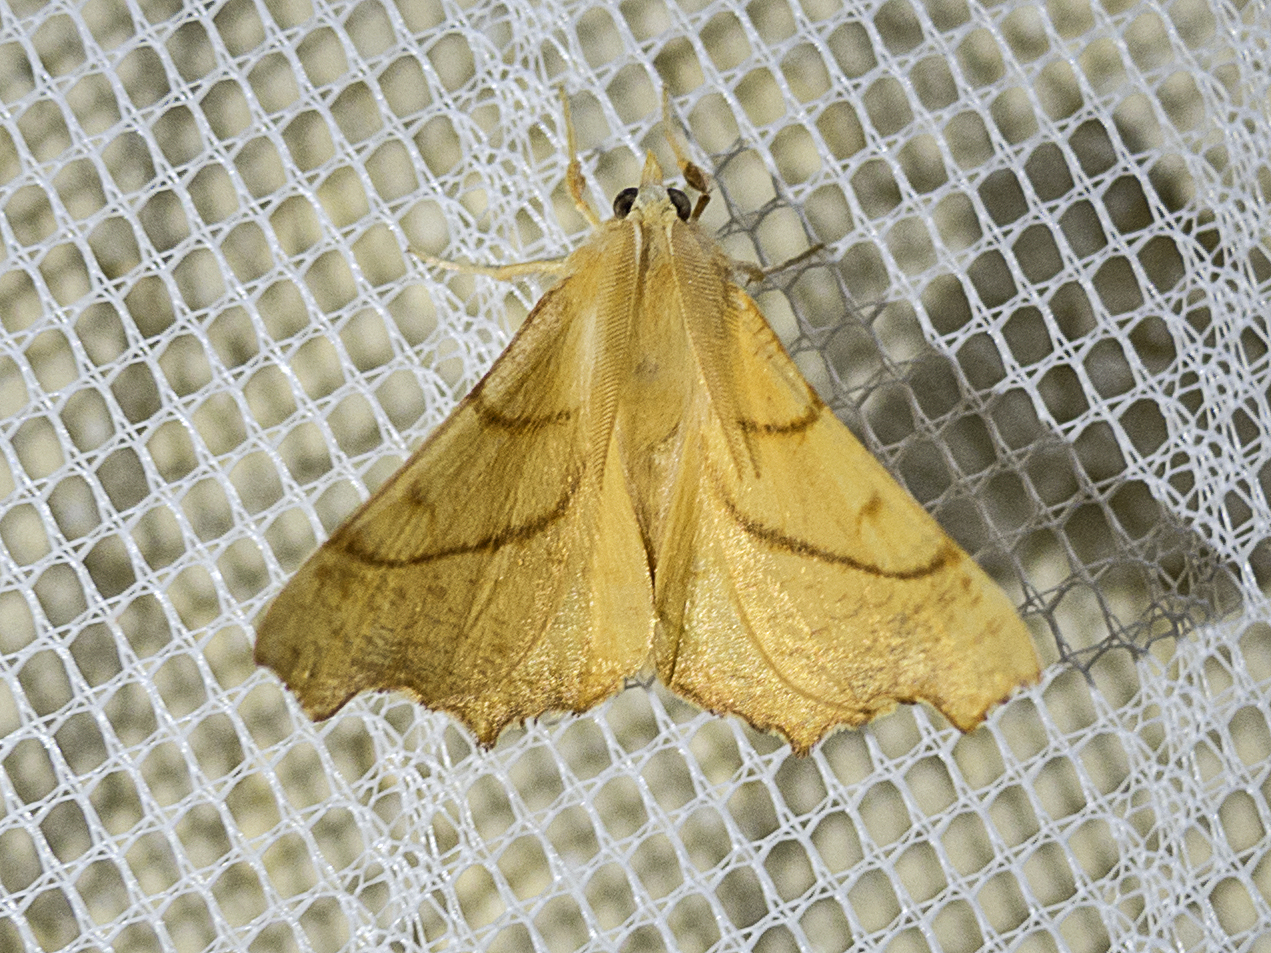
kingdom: Animalia
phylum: Arthropoda
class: Insecta
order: Lepidoptera
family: Geometridae
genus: Ennomos
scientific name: Ennomos fuscantaria
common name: Dusky thorn
